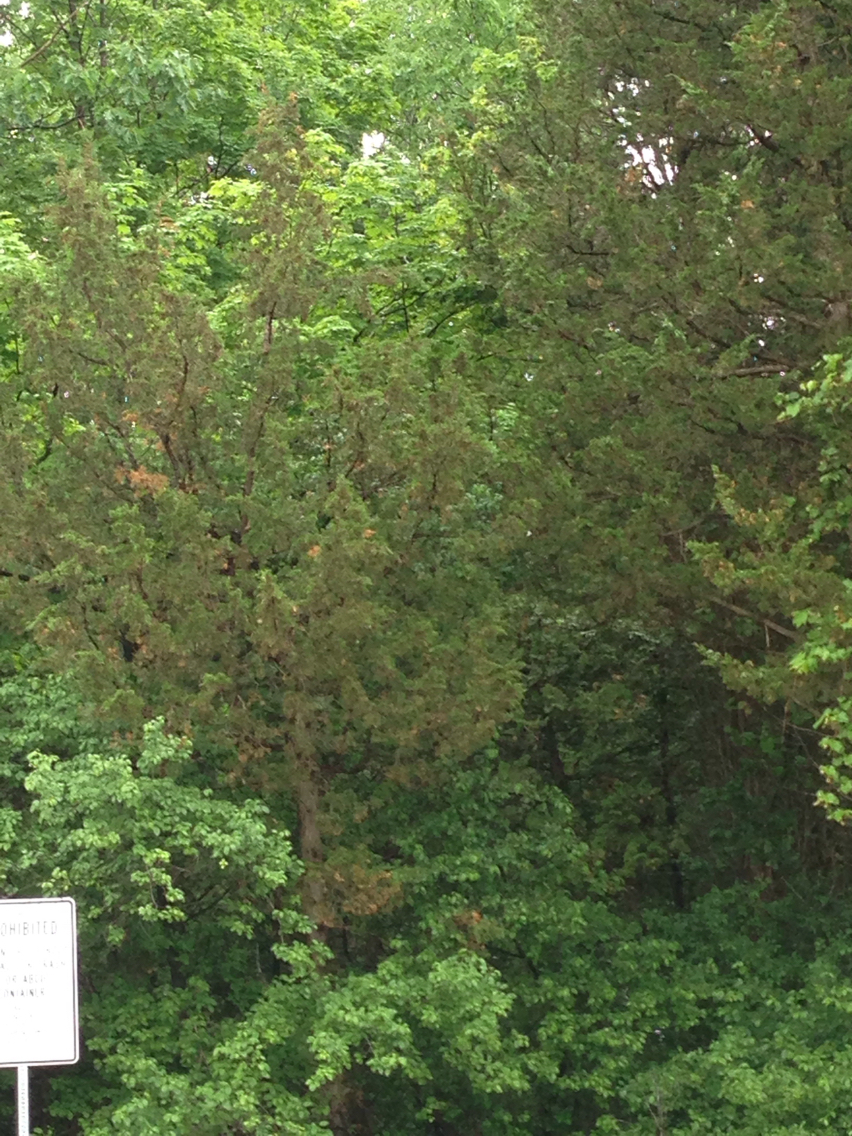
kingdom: Plantae
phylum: Tracheophyta
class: Pinopsida
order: Pinales
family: Cupressaceae
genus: Juniperus
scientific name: Juniperus virginiana
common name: Red juniper
